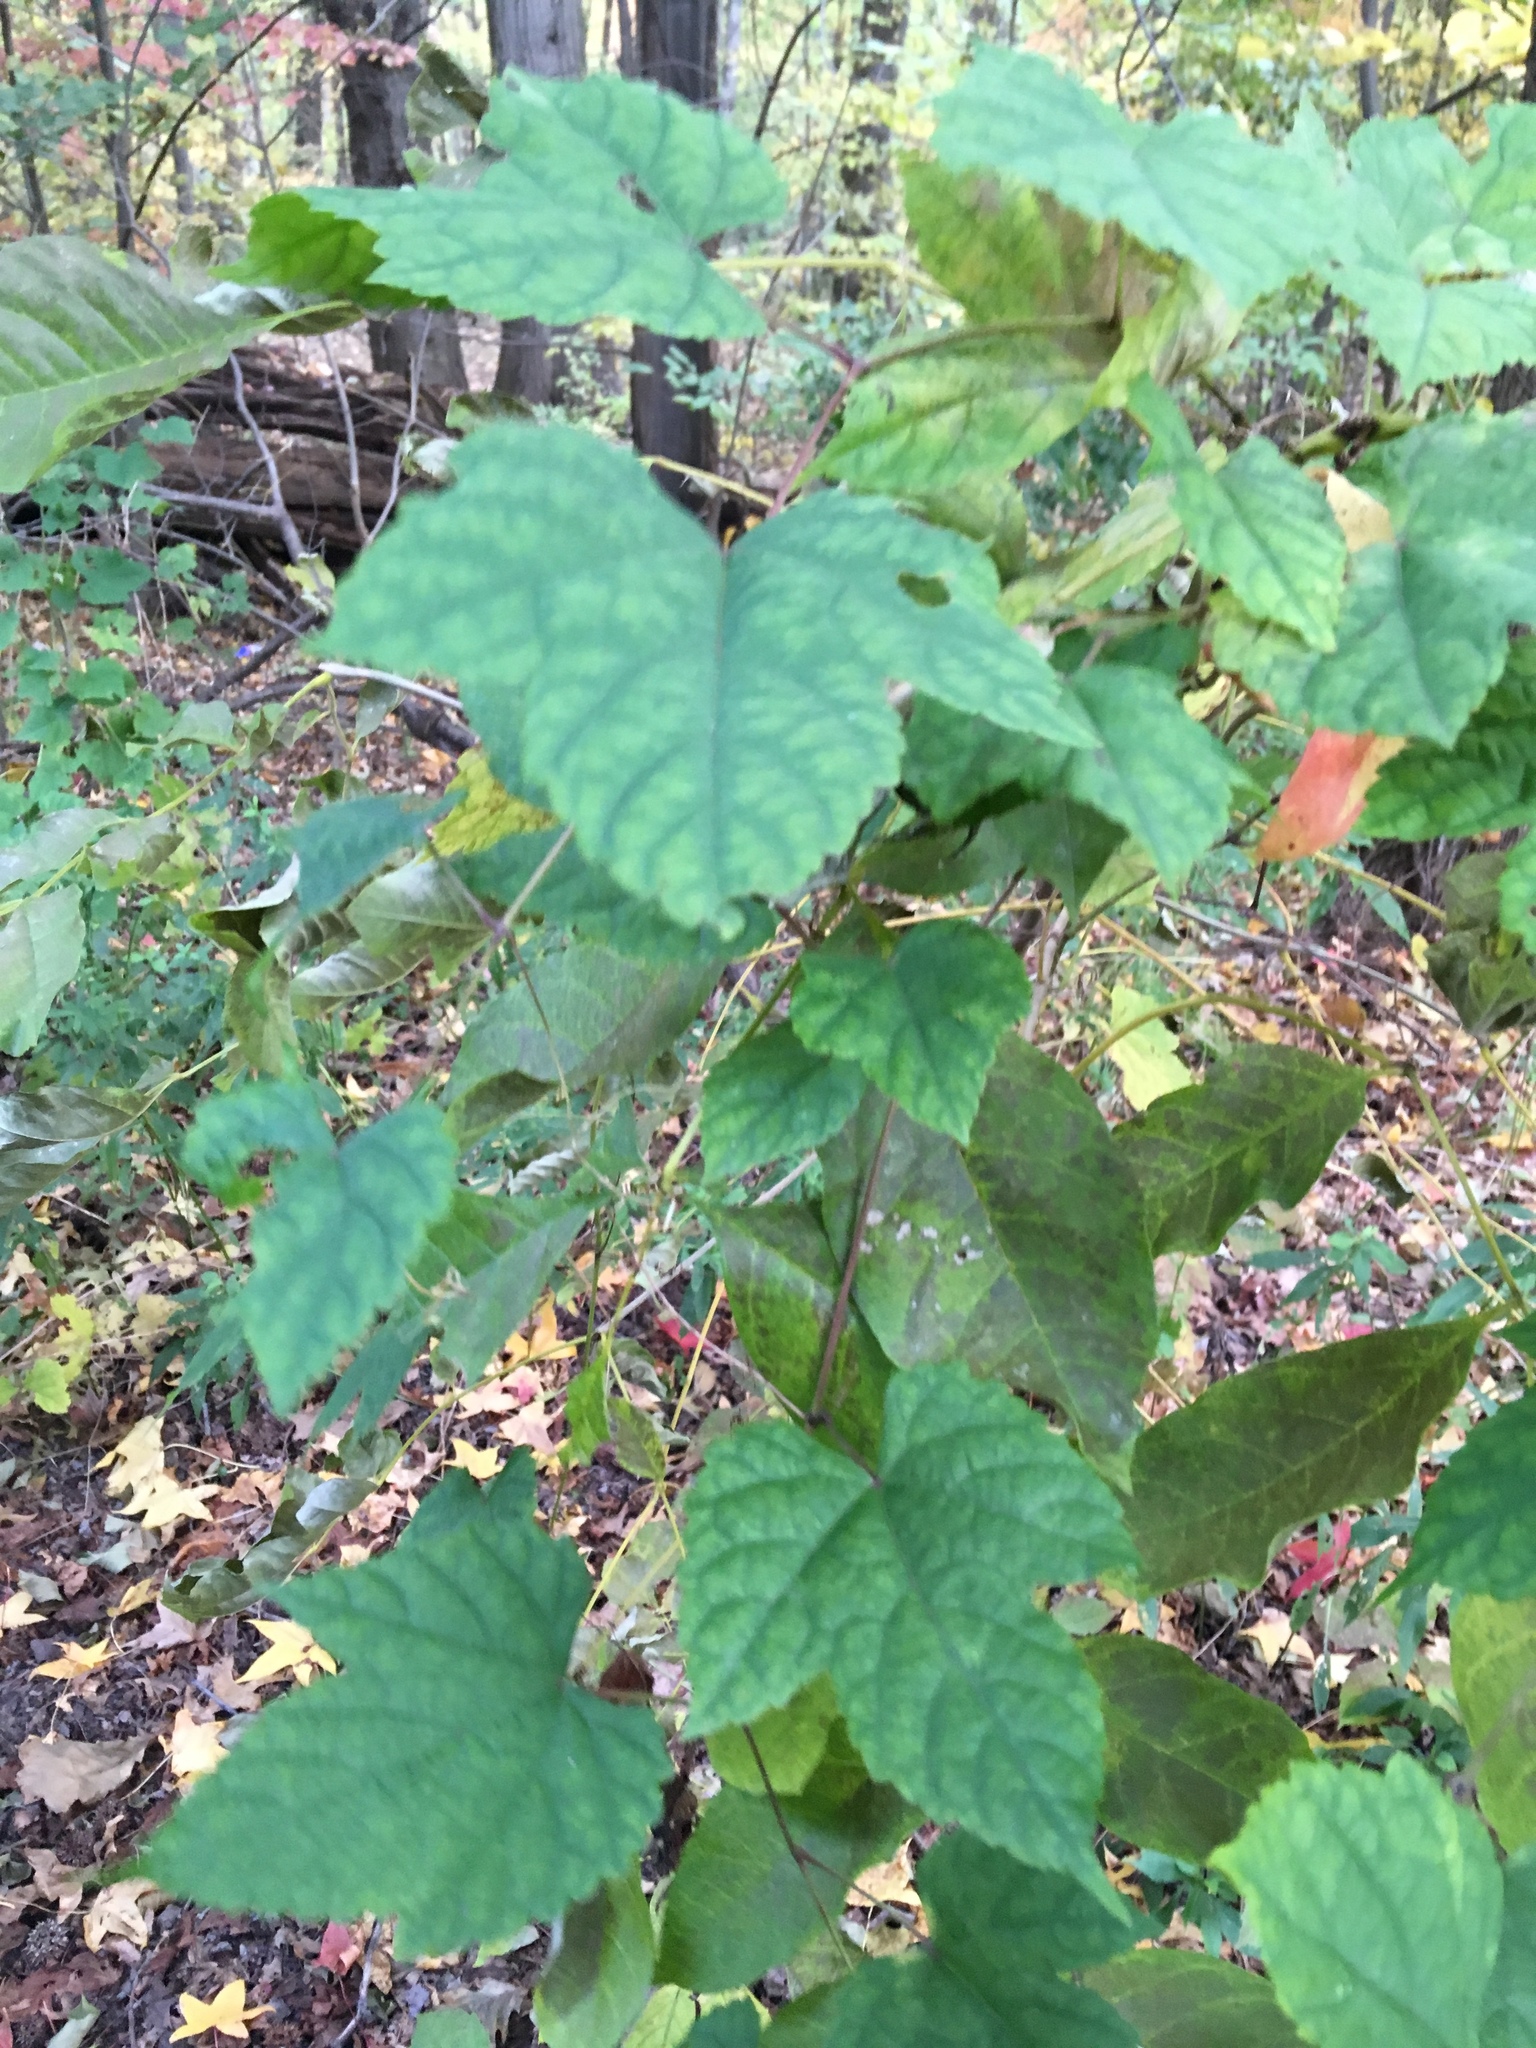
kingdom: Plantae
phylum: Tracheophyta
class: Magnoliopsida
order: Vitales
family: Vitaceae
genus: Ampelopsis
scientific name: Ampelopsis glandulosa
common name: Amur peppervine
